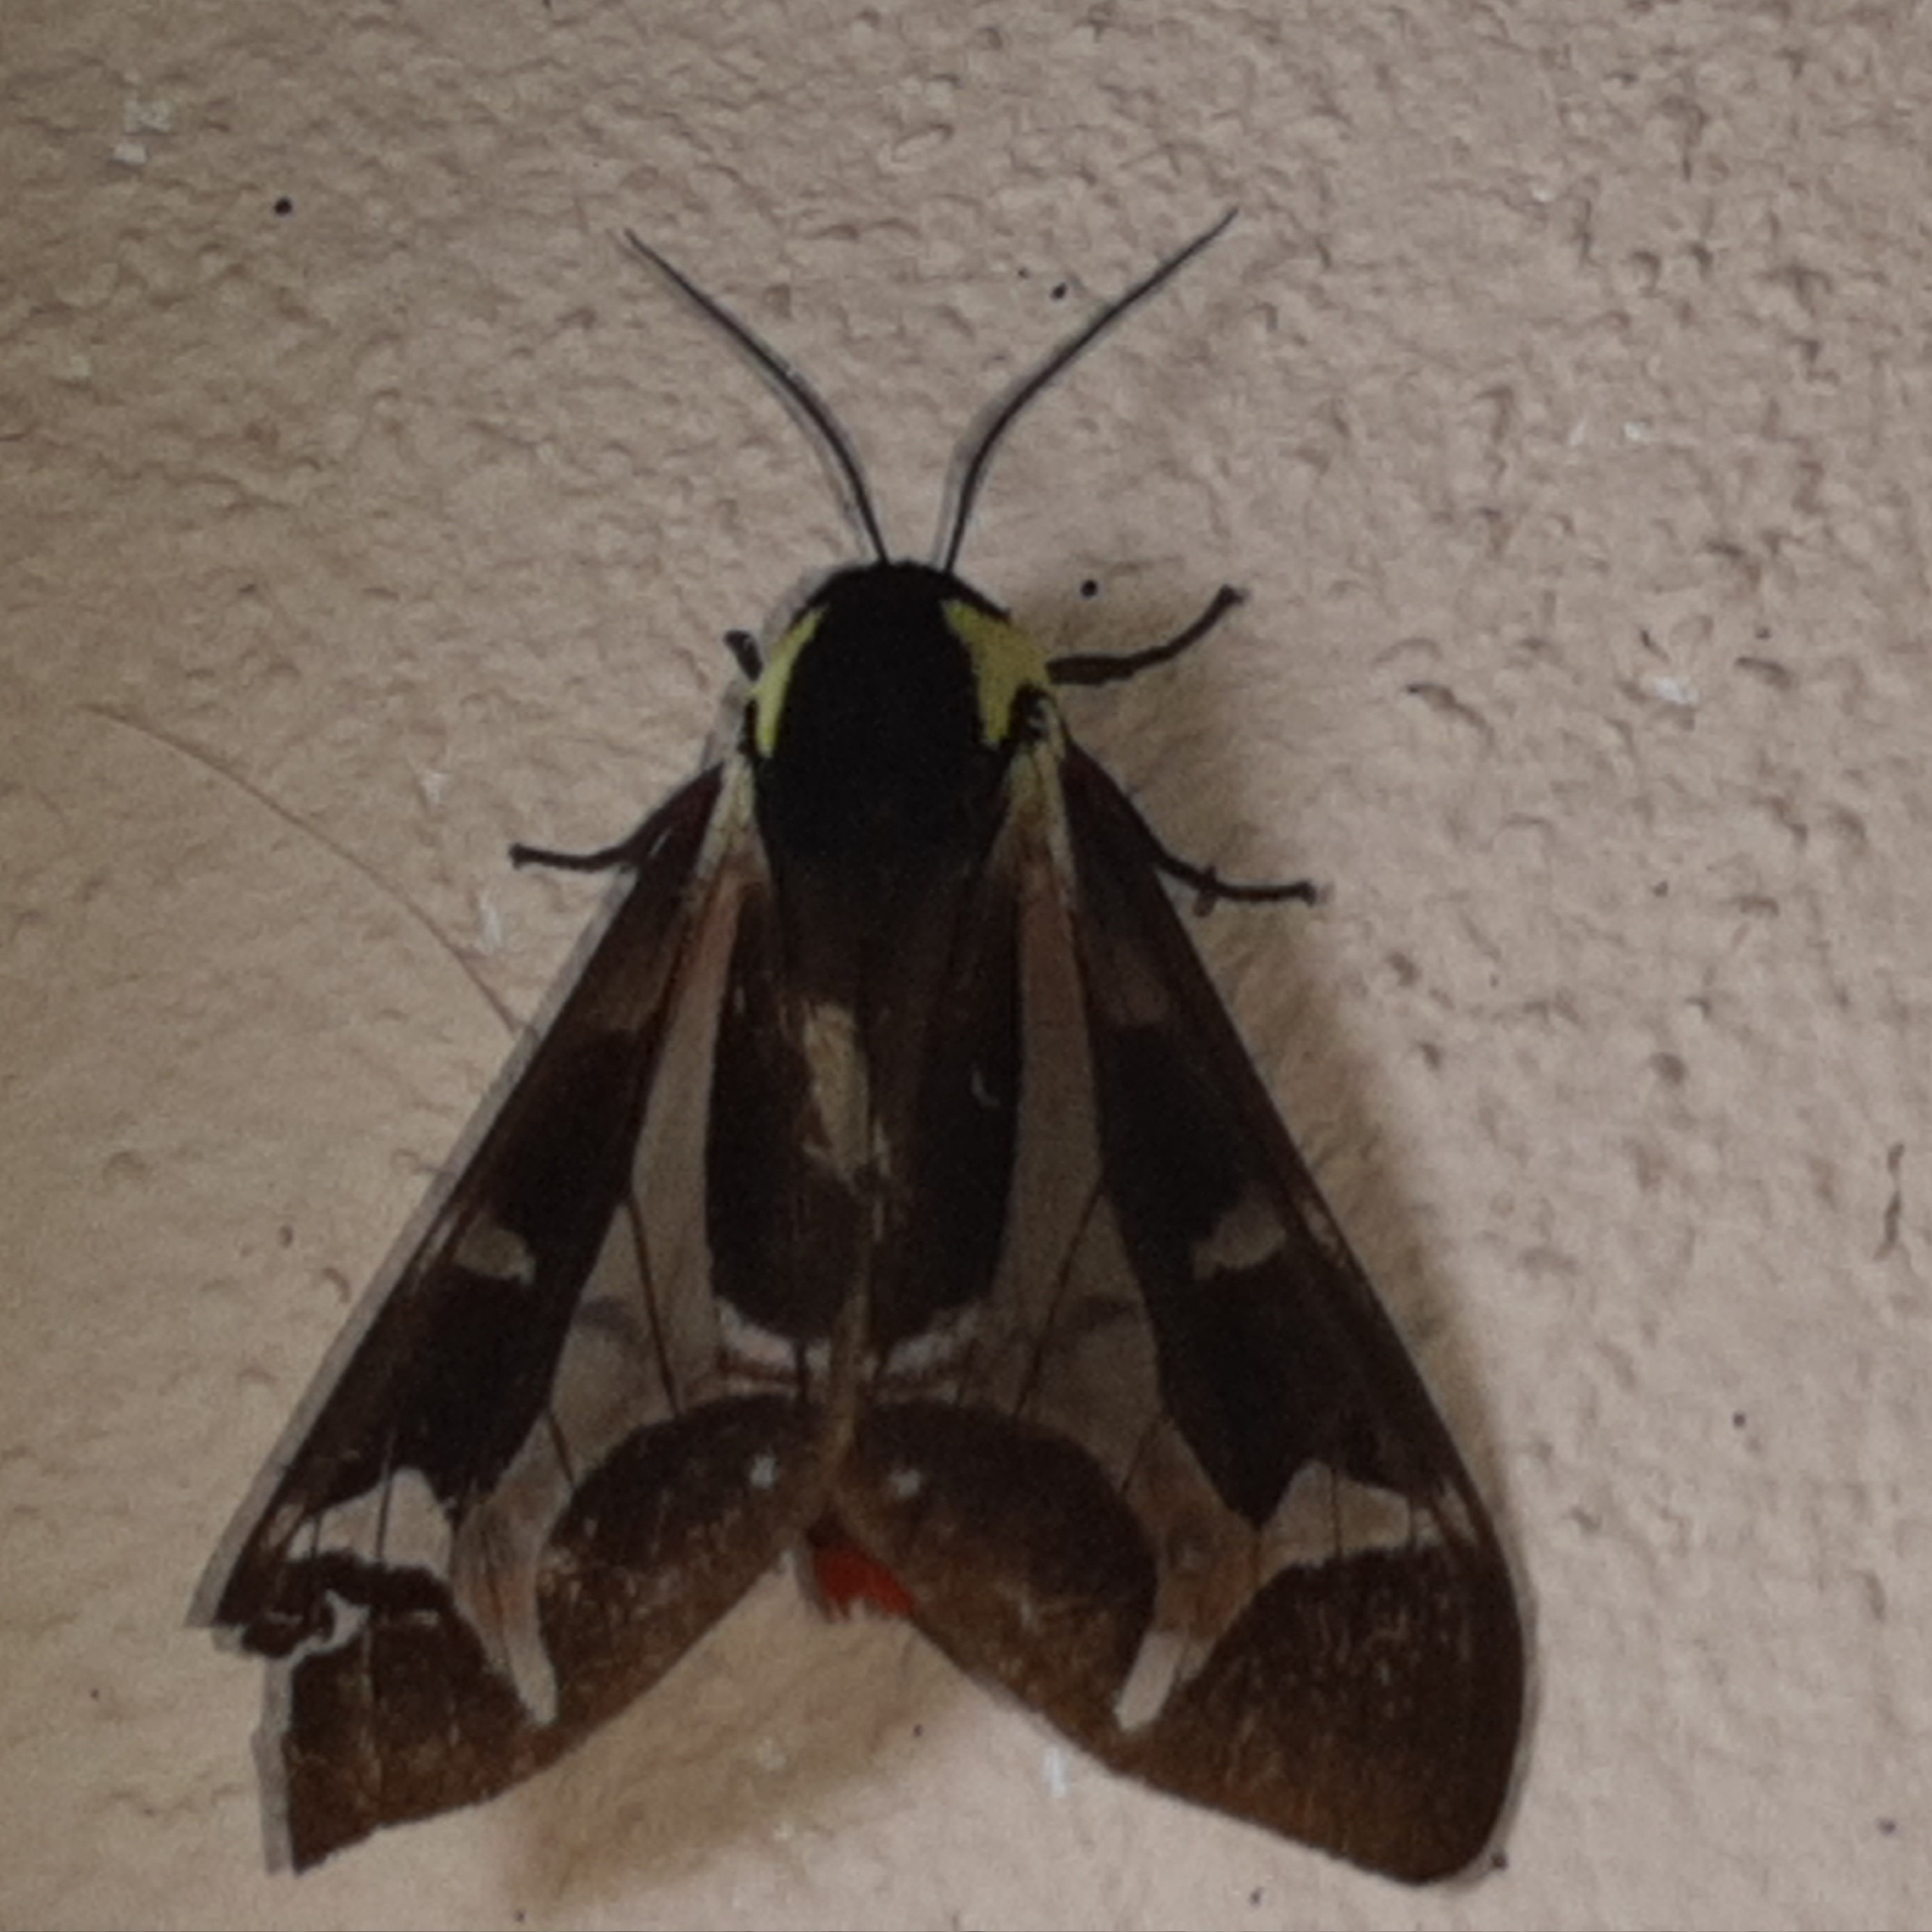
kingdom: Animalia
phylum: Arthropoda
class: Insecta
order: Lepidoptera
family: Erebidae
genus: Dysschema
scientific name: Dysschema mariamne
